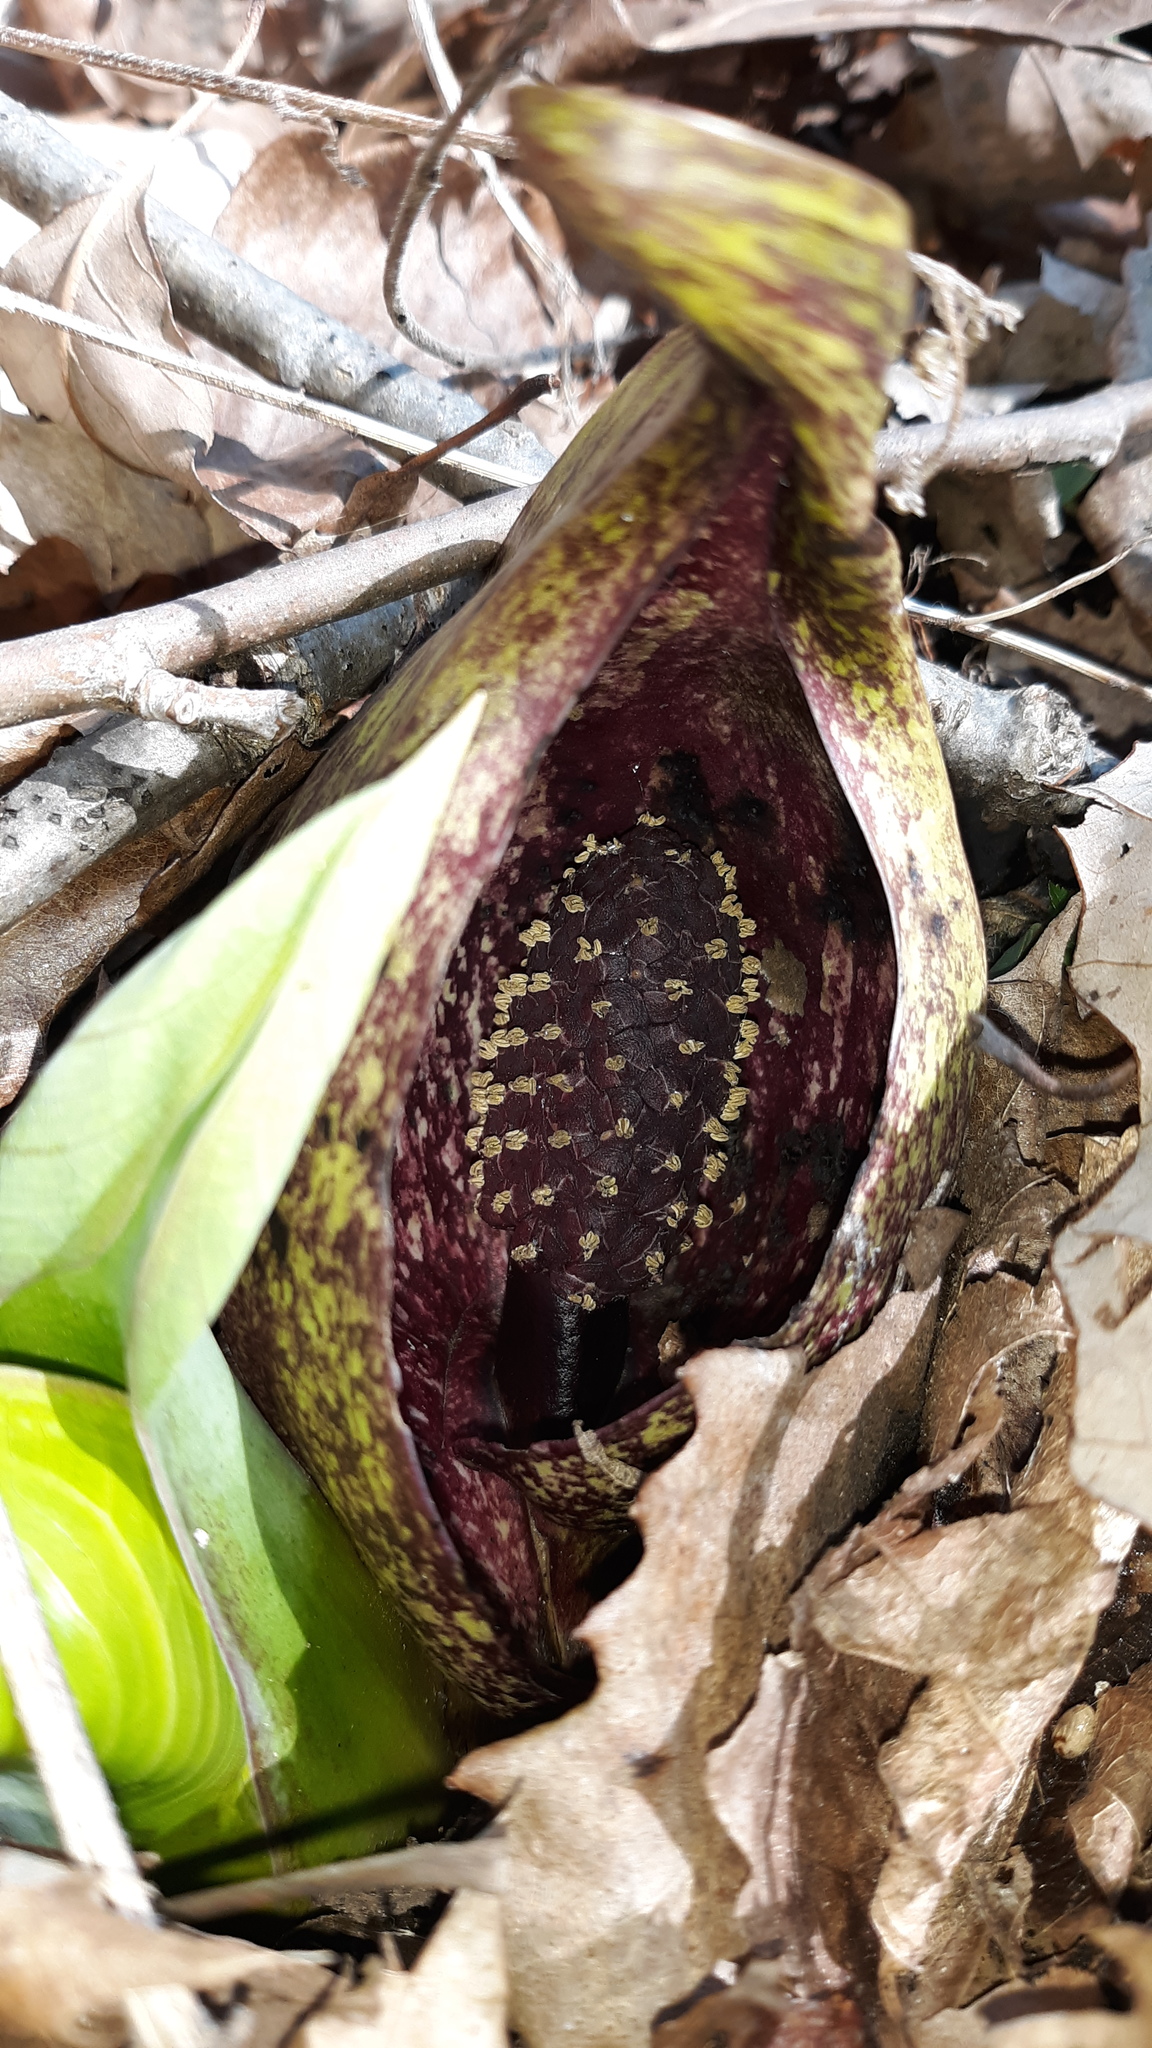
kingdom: Plantae
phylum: Tracheophyta
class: Liliopsida
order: Alismatales
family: Araceae
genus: Symplocarpus
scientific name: Symplocarpus foetidus
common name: Eastern skunk cabbage
